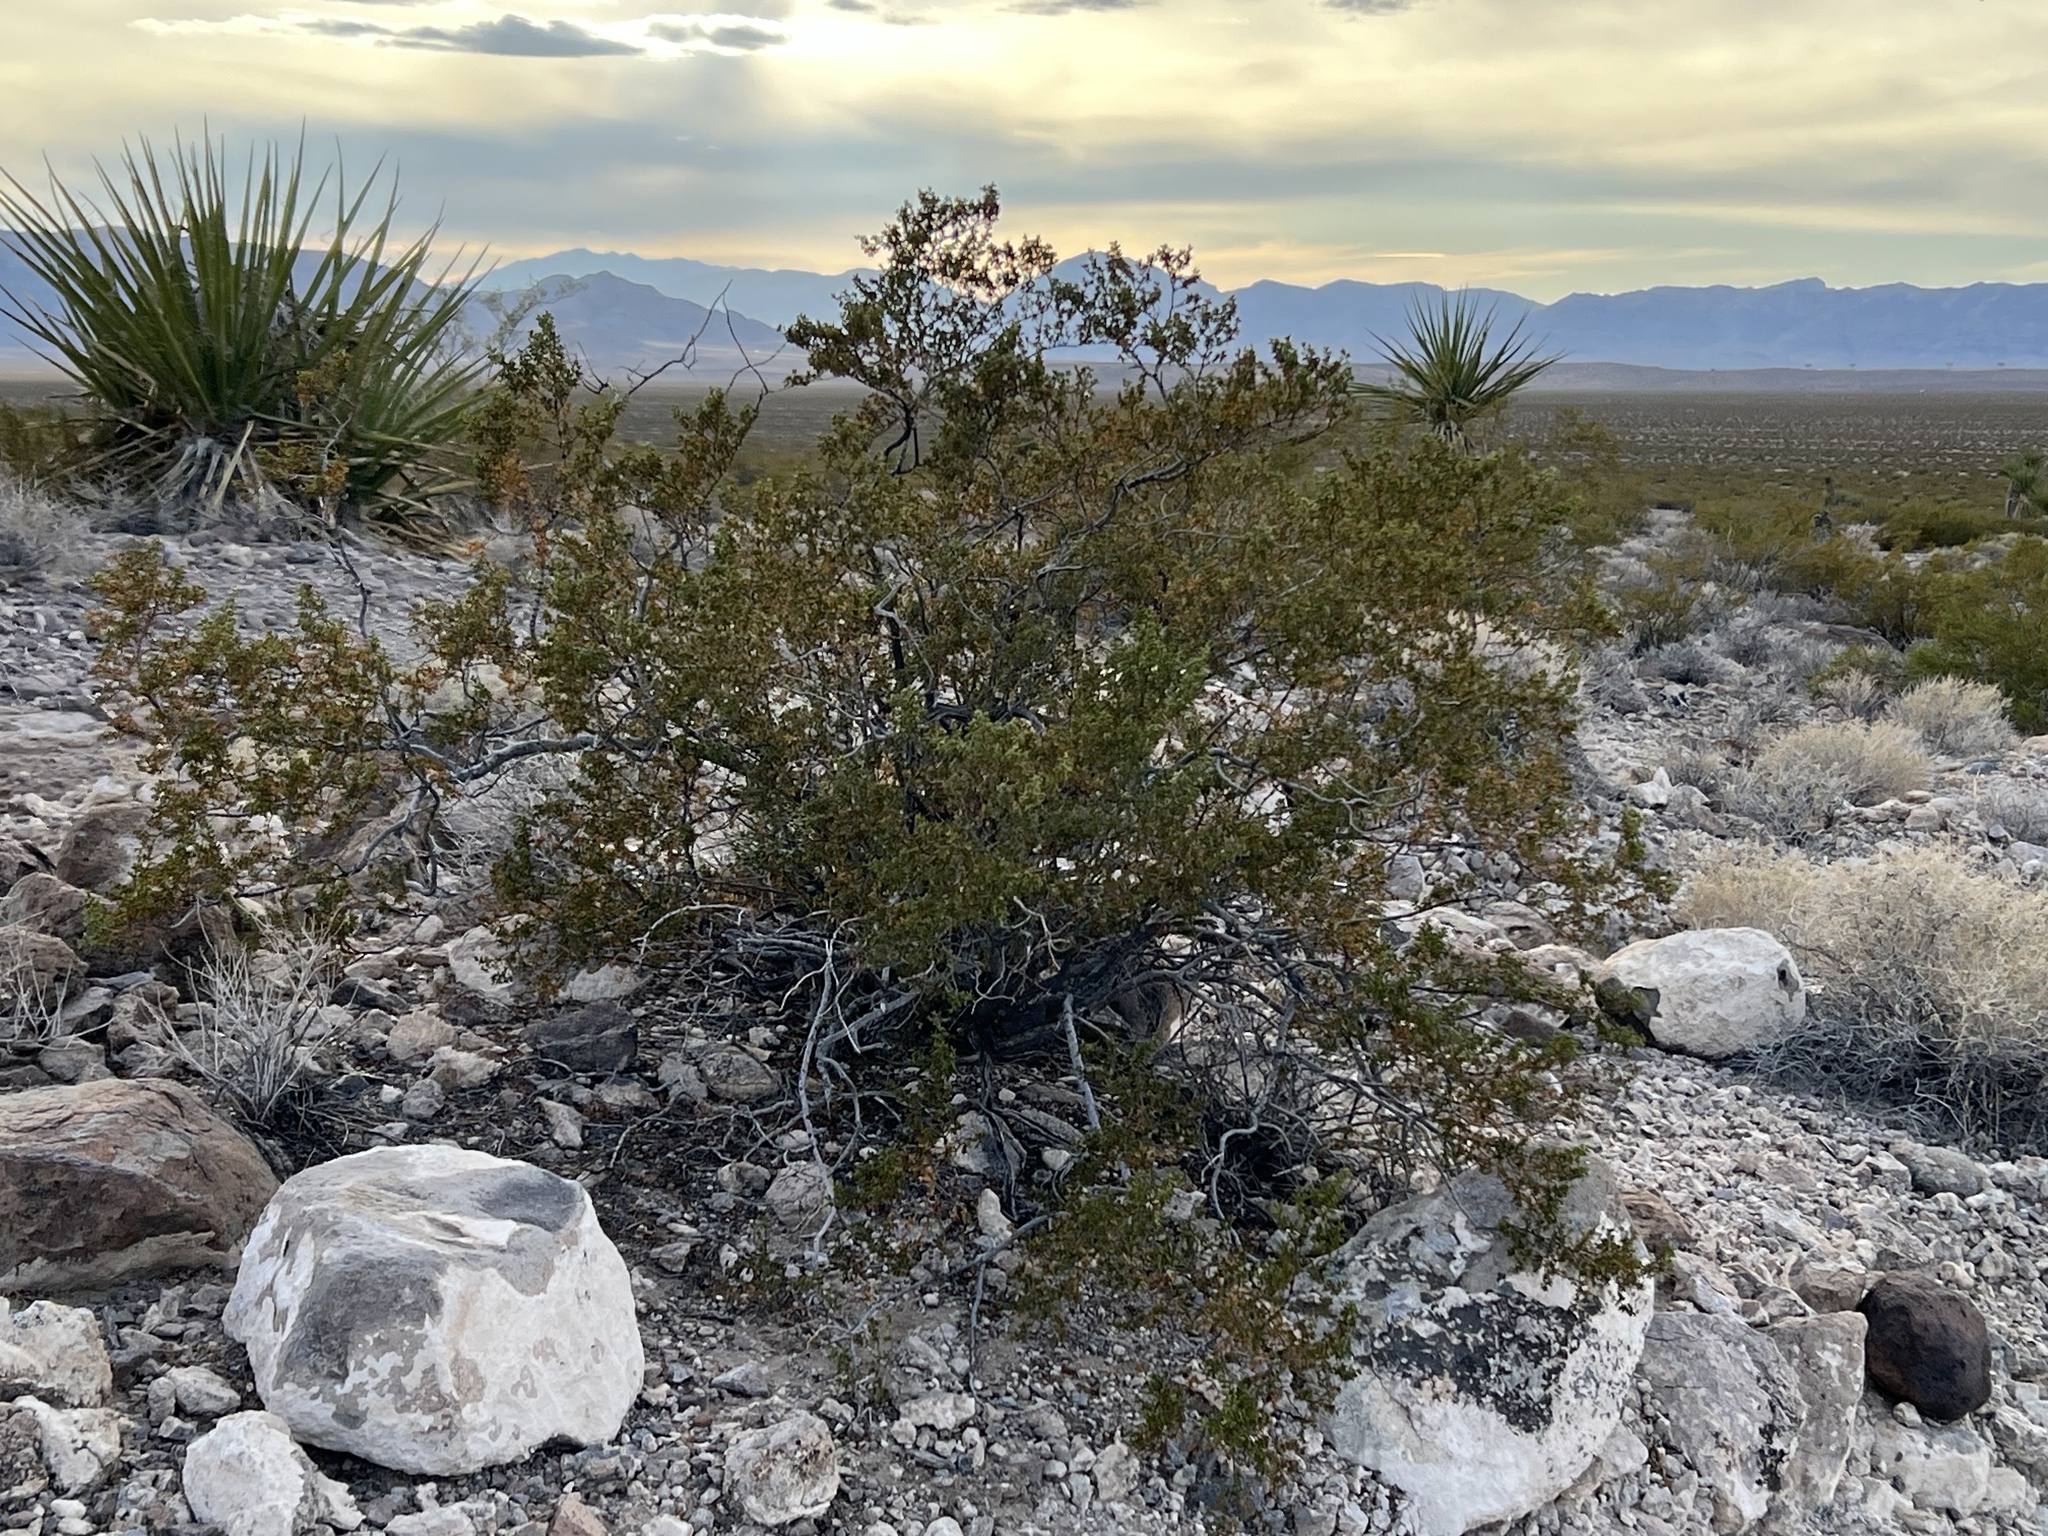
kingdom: Plantae
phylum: Tracheophyta
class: Magnoliopsida
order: Zygophyllales
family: Zygophyllaceae
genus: Larrea
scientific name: Larrea tridentata
